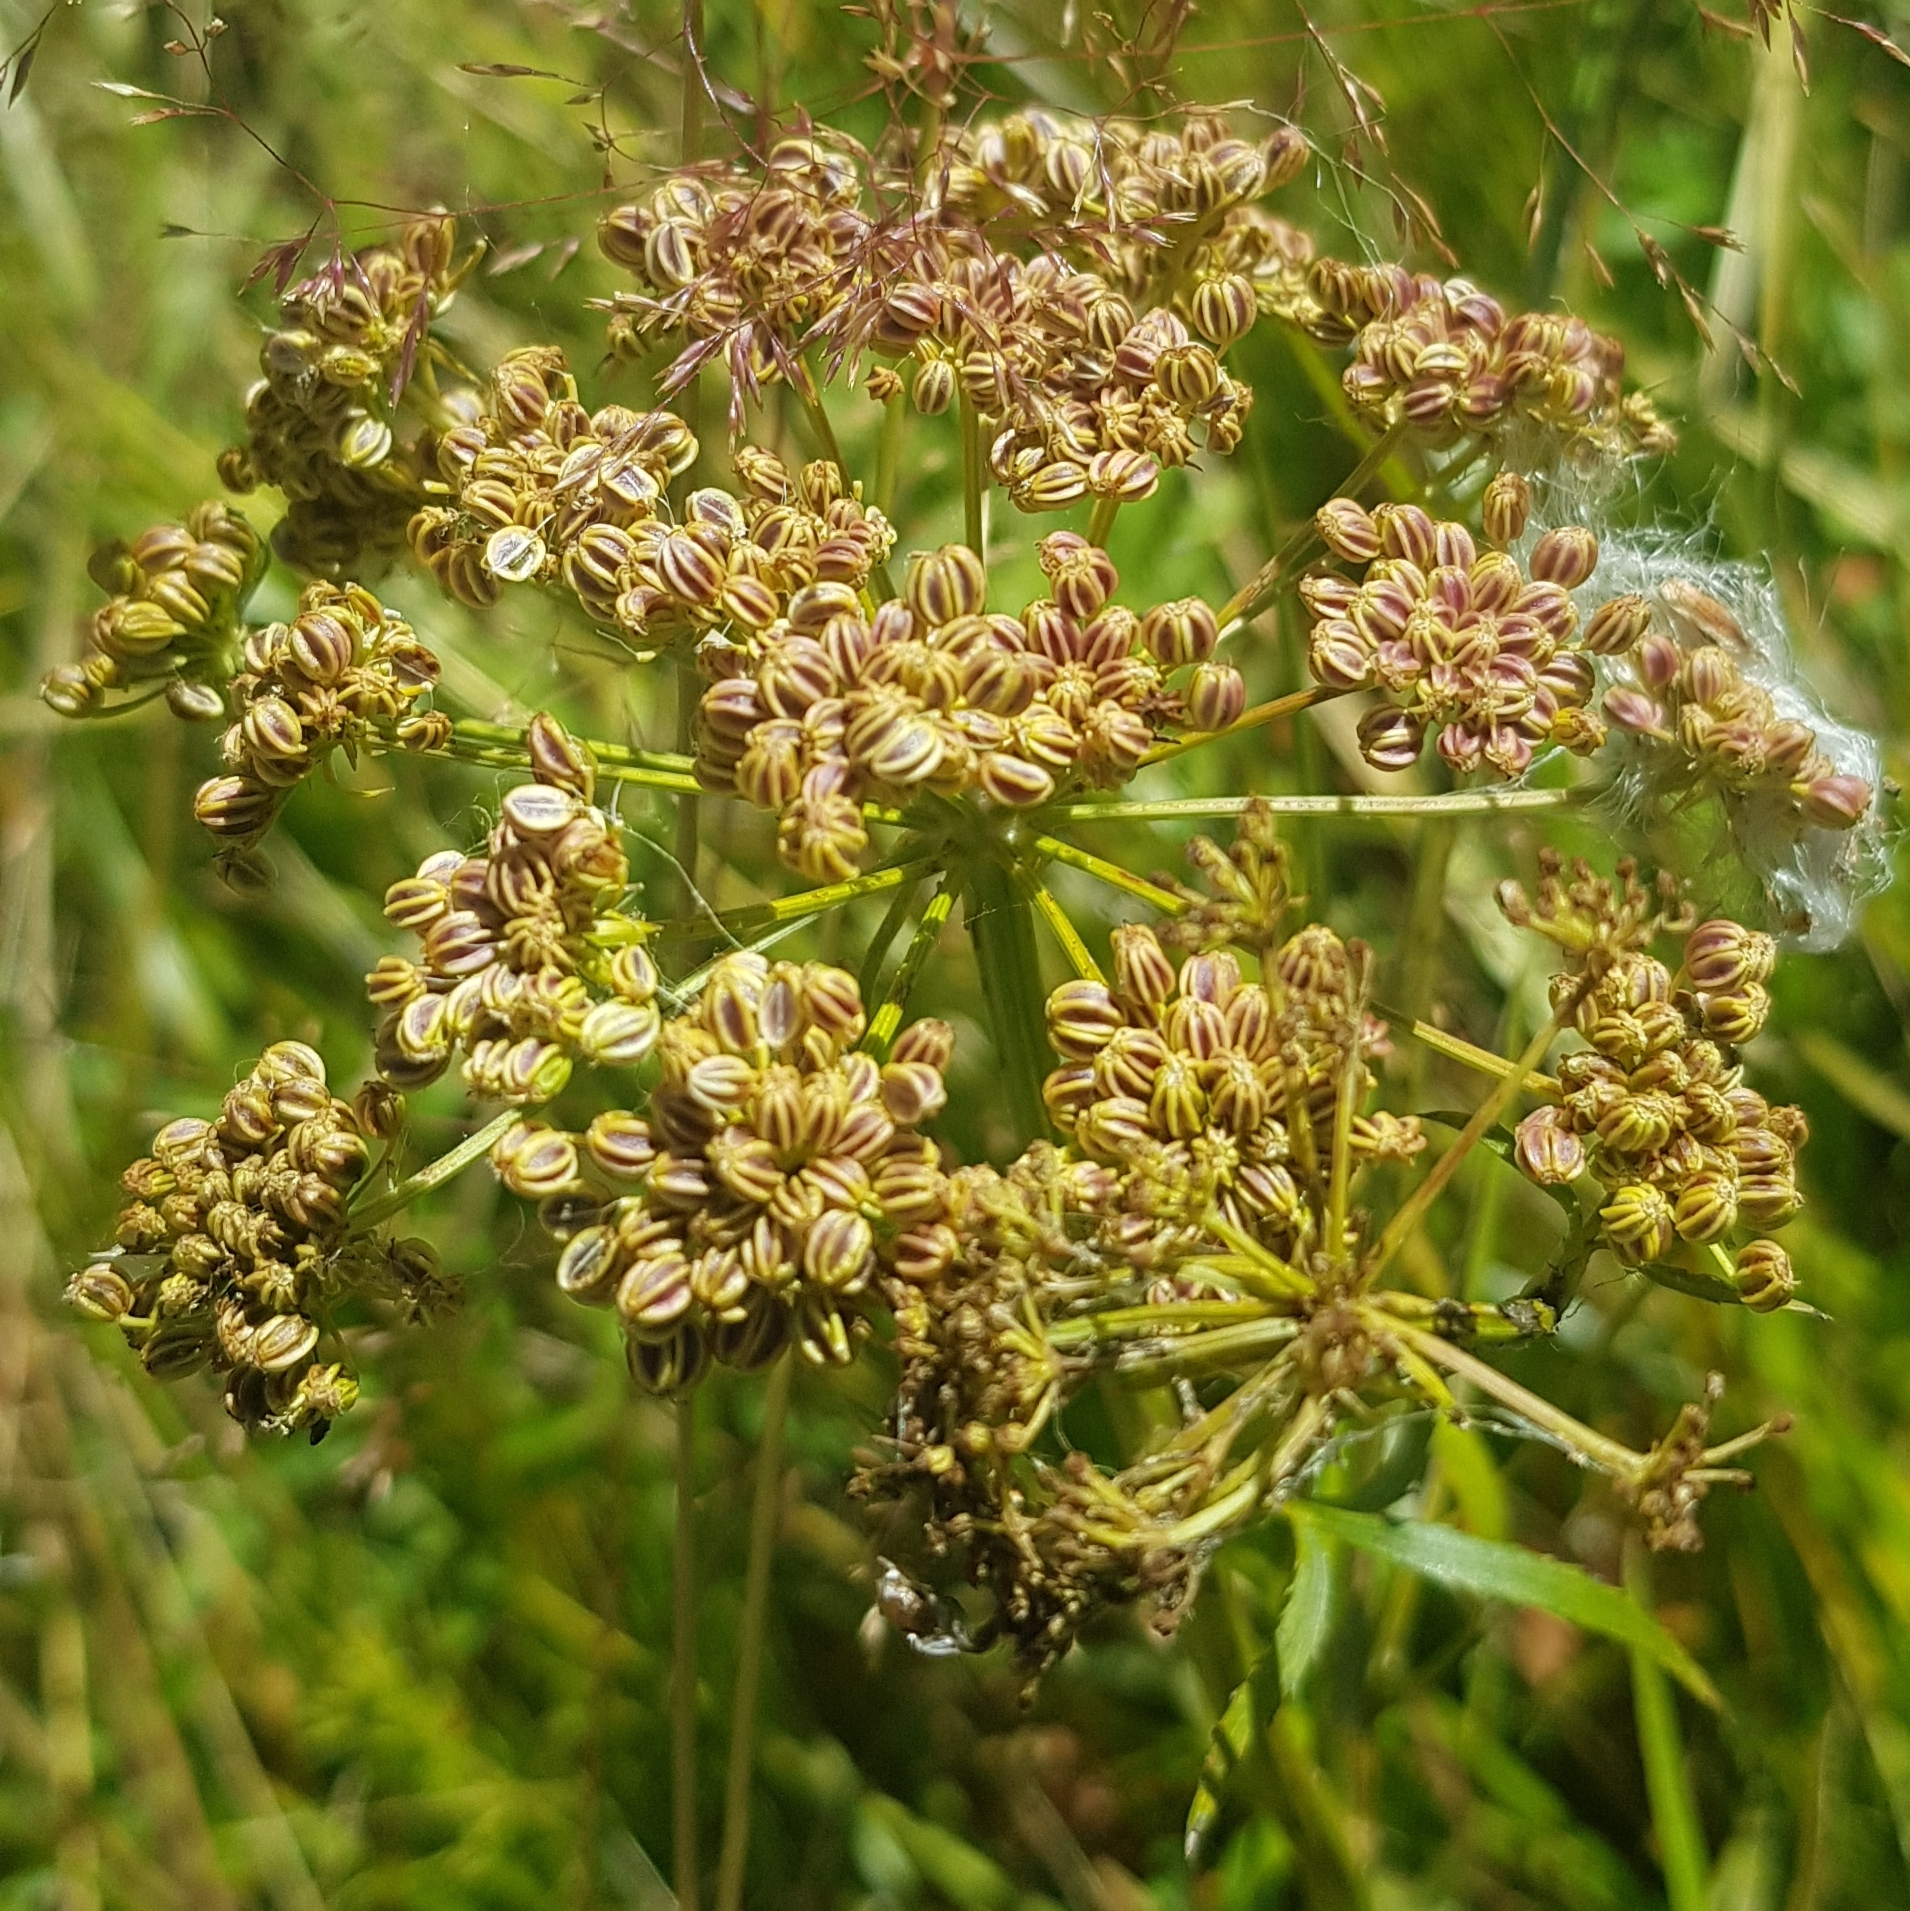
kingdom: Plantae
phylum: Tracheophyta
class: Magnoliopsida
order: Apiales
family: Apiaceae
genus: Sium
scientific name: Sium suave
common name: Hemlock water-parsnip
